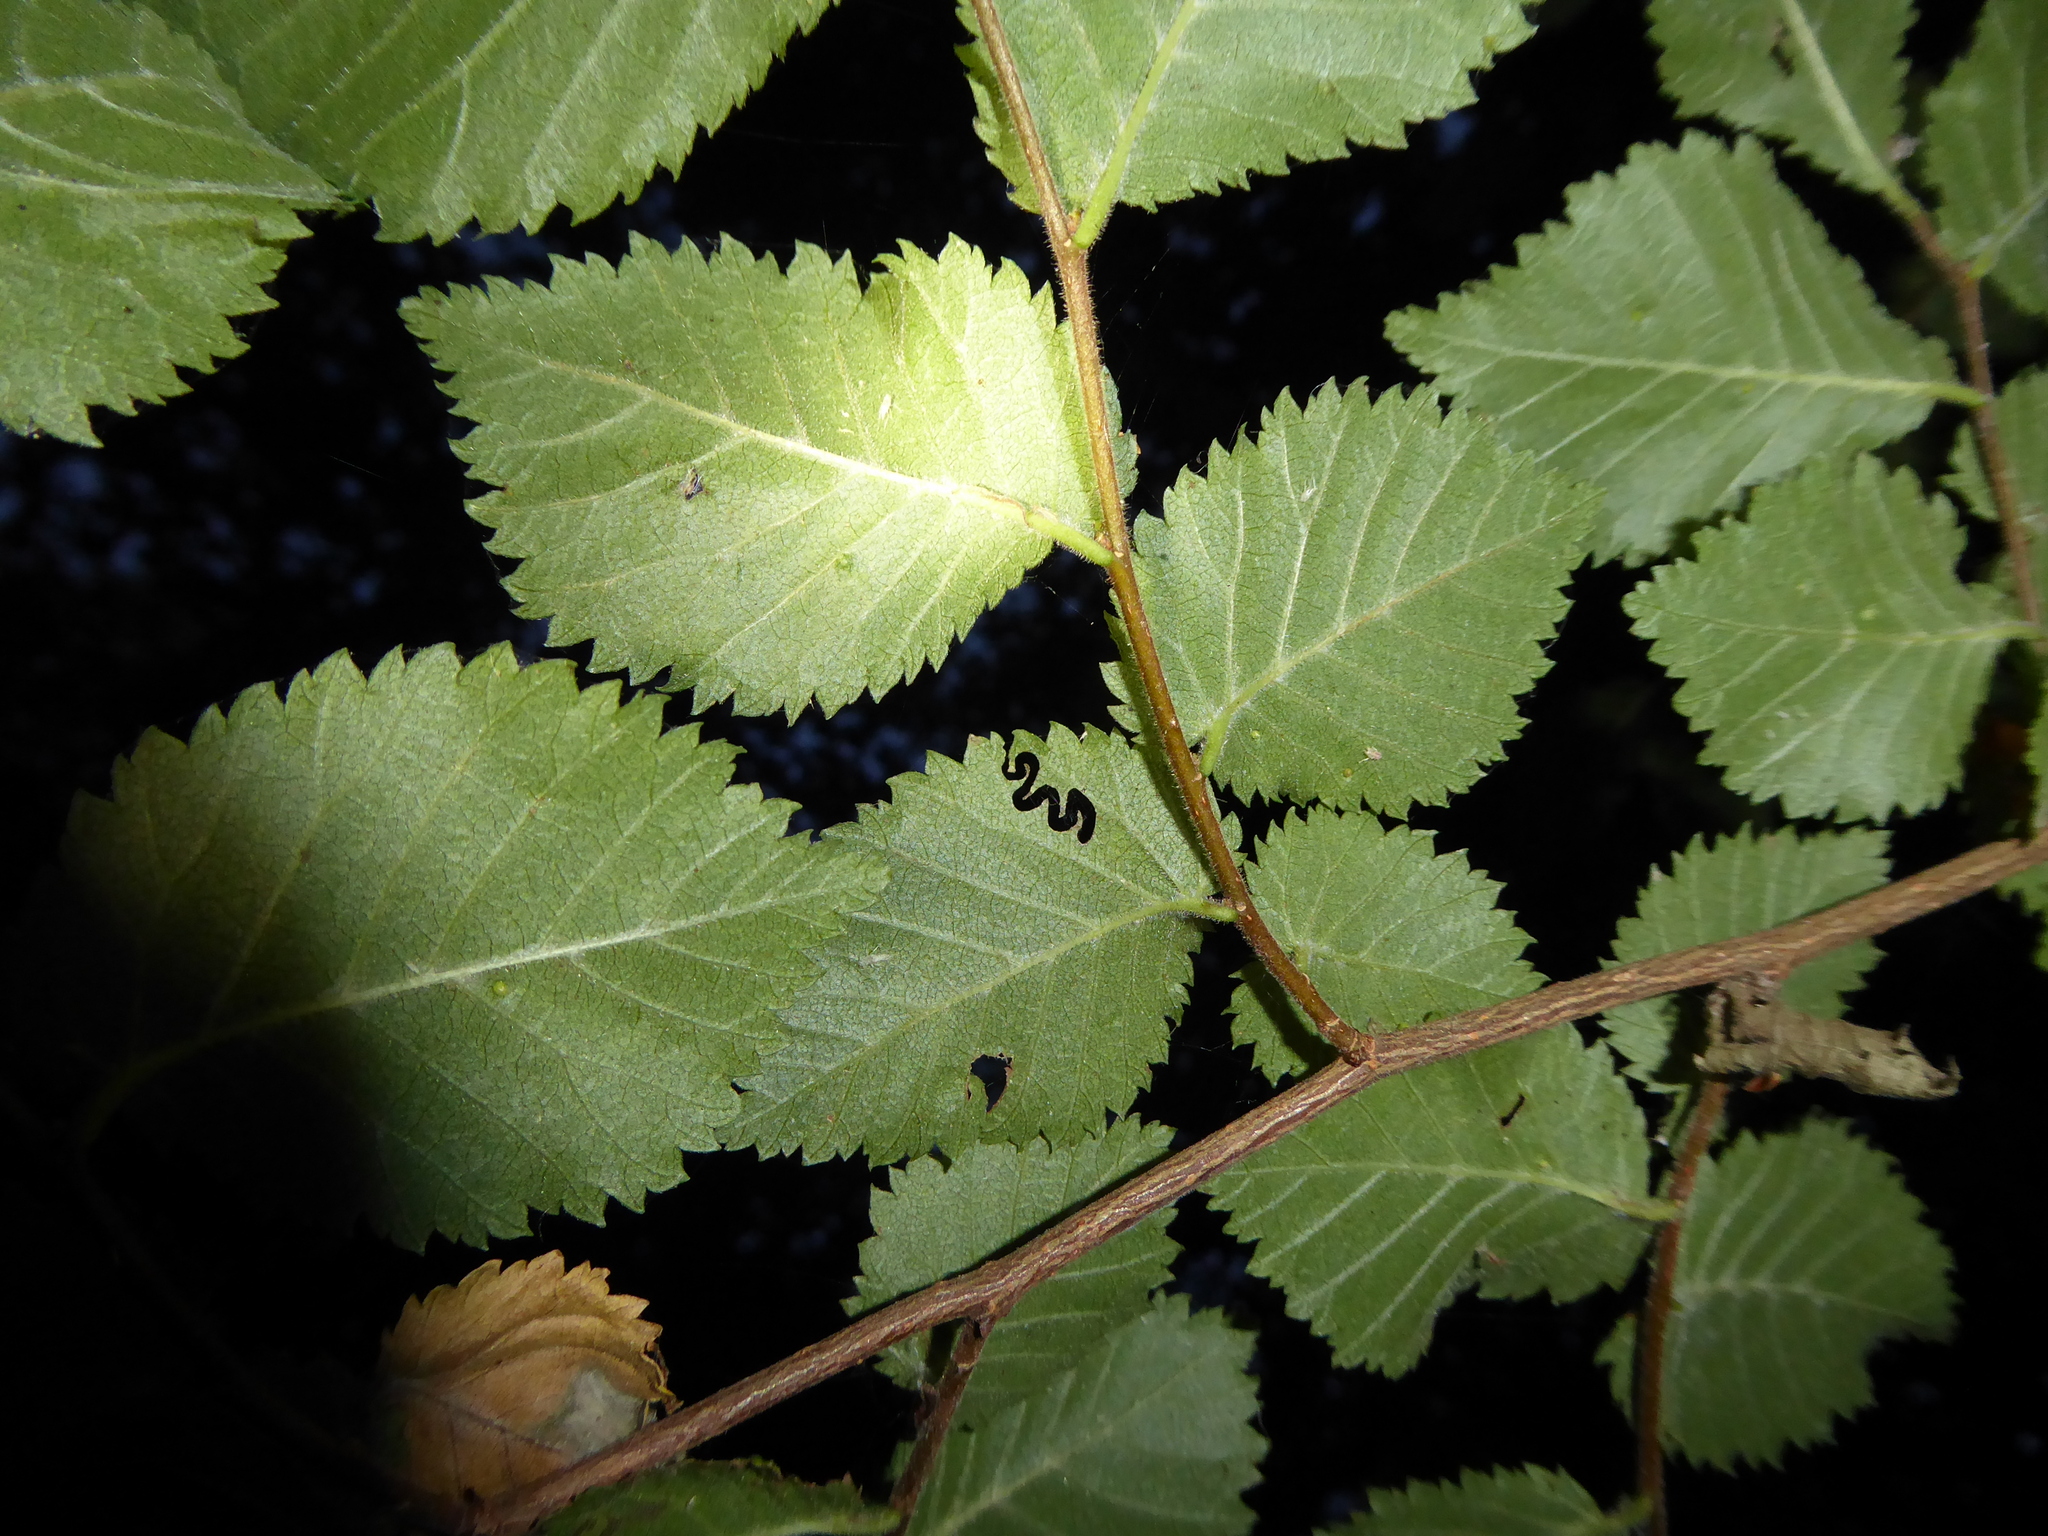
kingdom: Animalia
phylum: Arthropoda
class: Insecta
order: Hymenoptera
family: Argidae
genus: Aproceros
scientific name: Aproceros leucopoda
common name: Zig-zag elm sawfly
